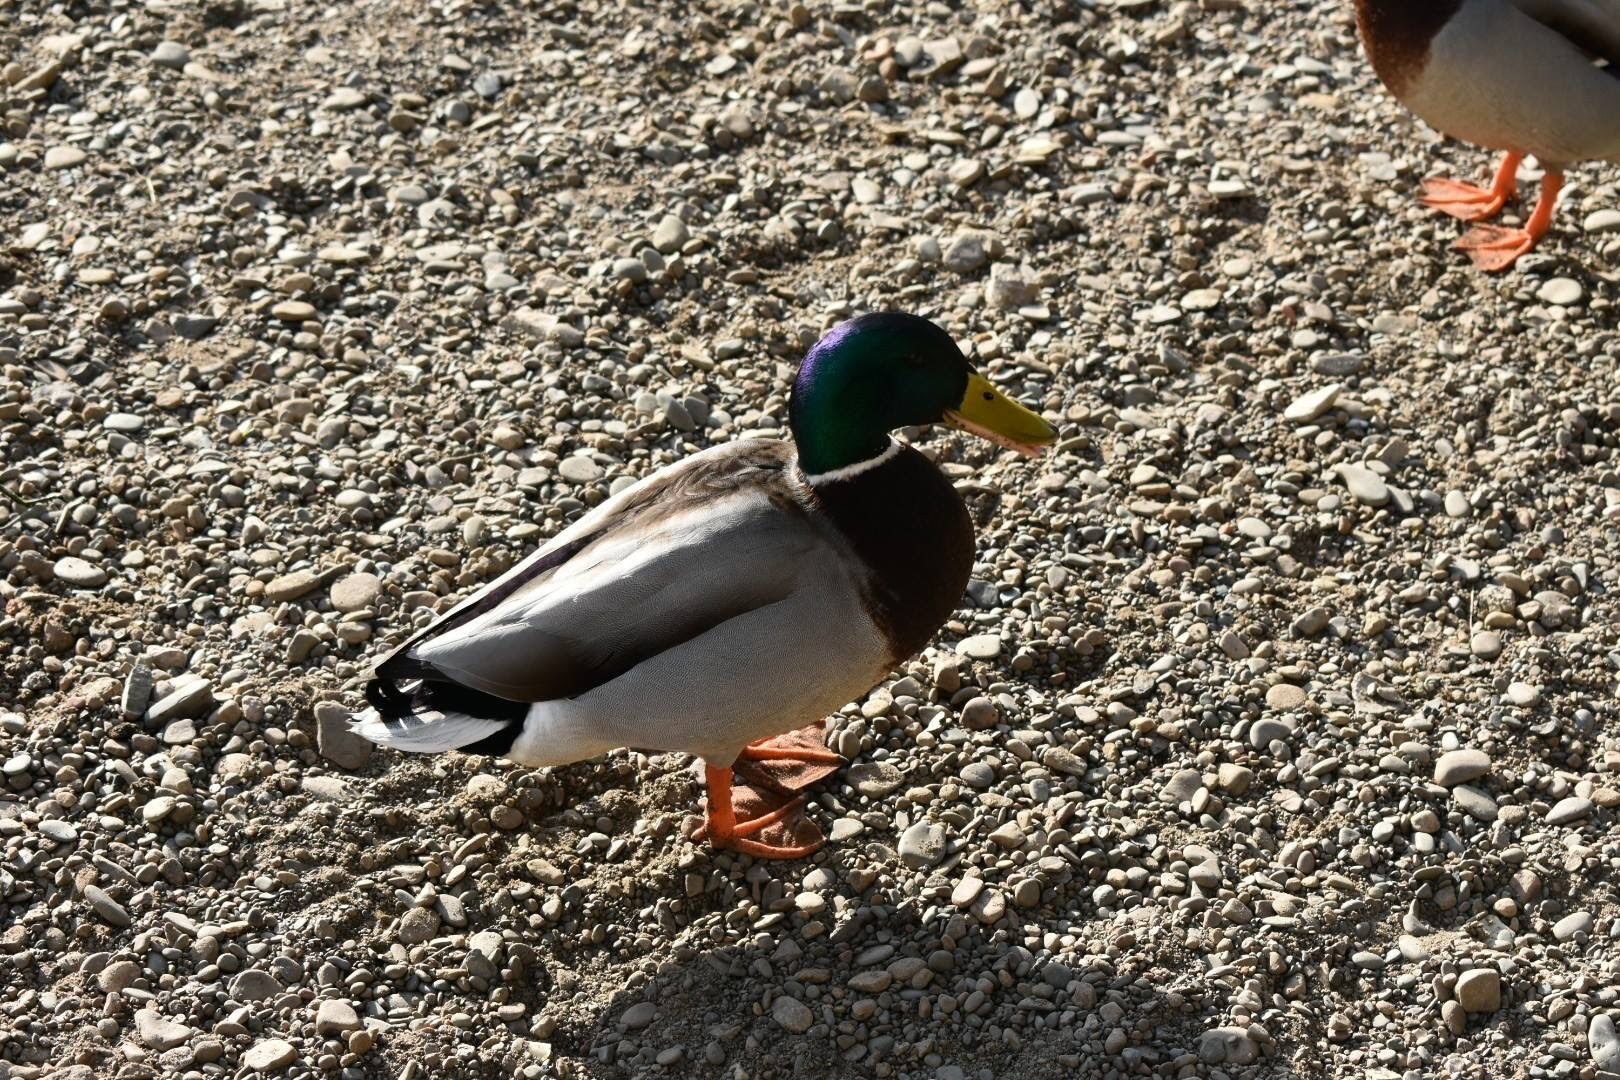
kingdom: Animalia
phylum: Chordata
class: Aves
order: Anseriformes
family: Anatidae
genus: Anas
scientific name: Anas platyrhynchos
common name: Mallard
